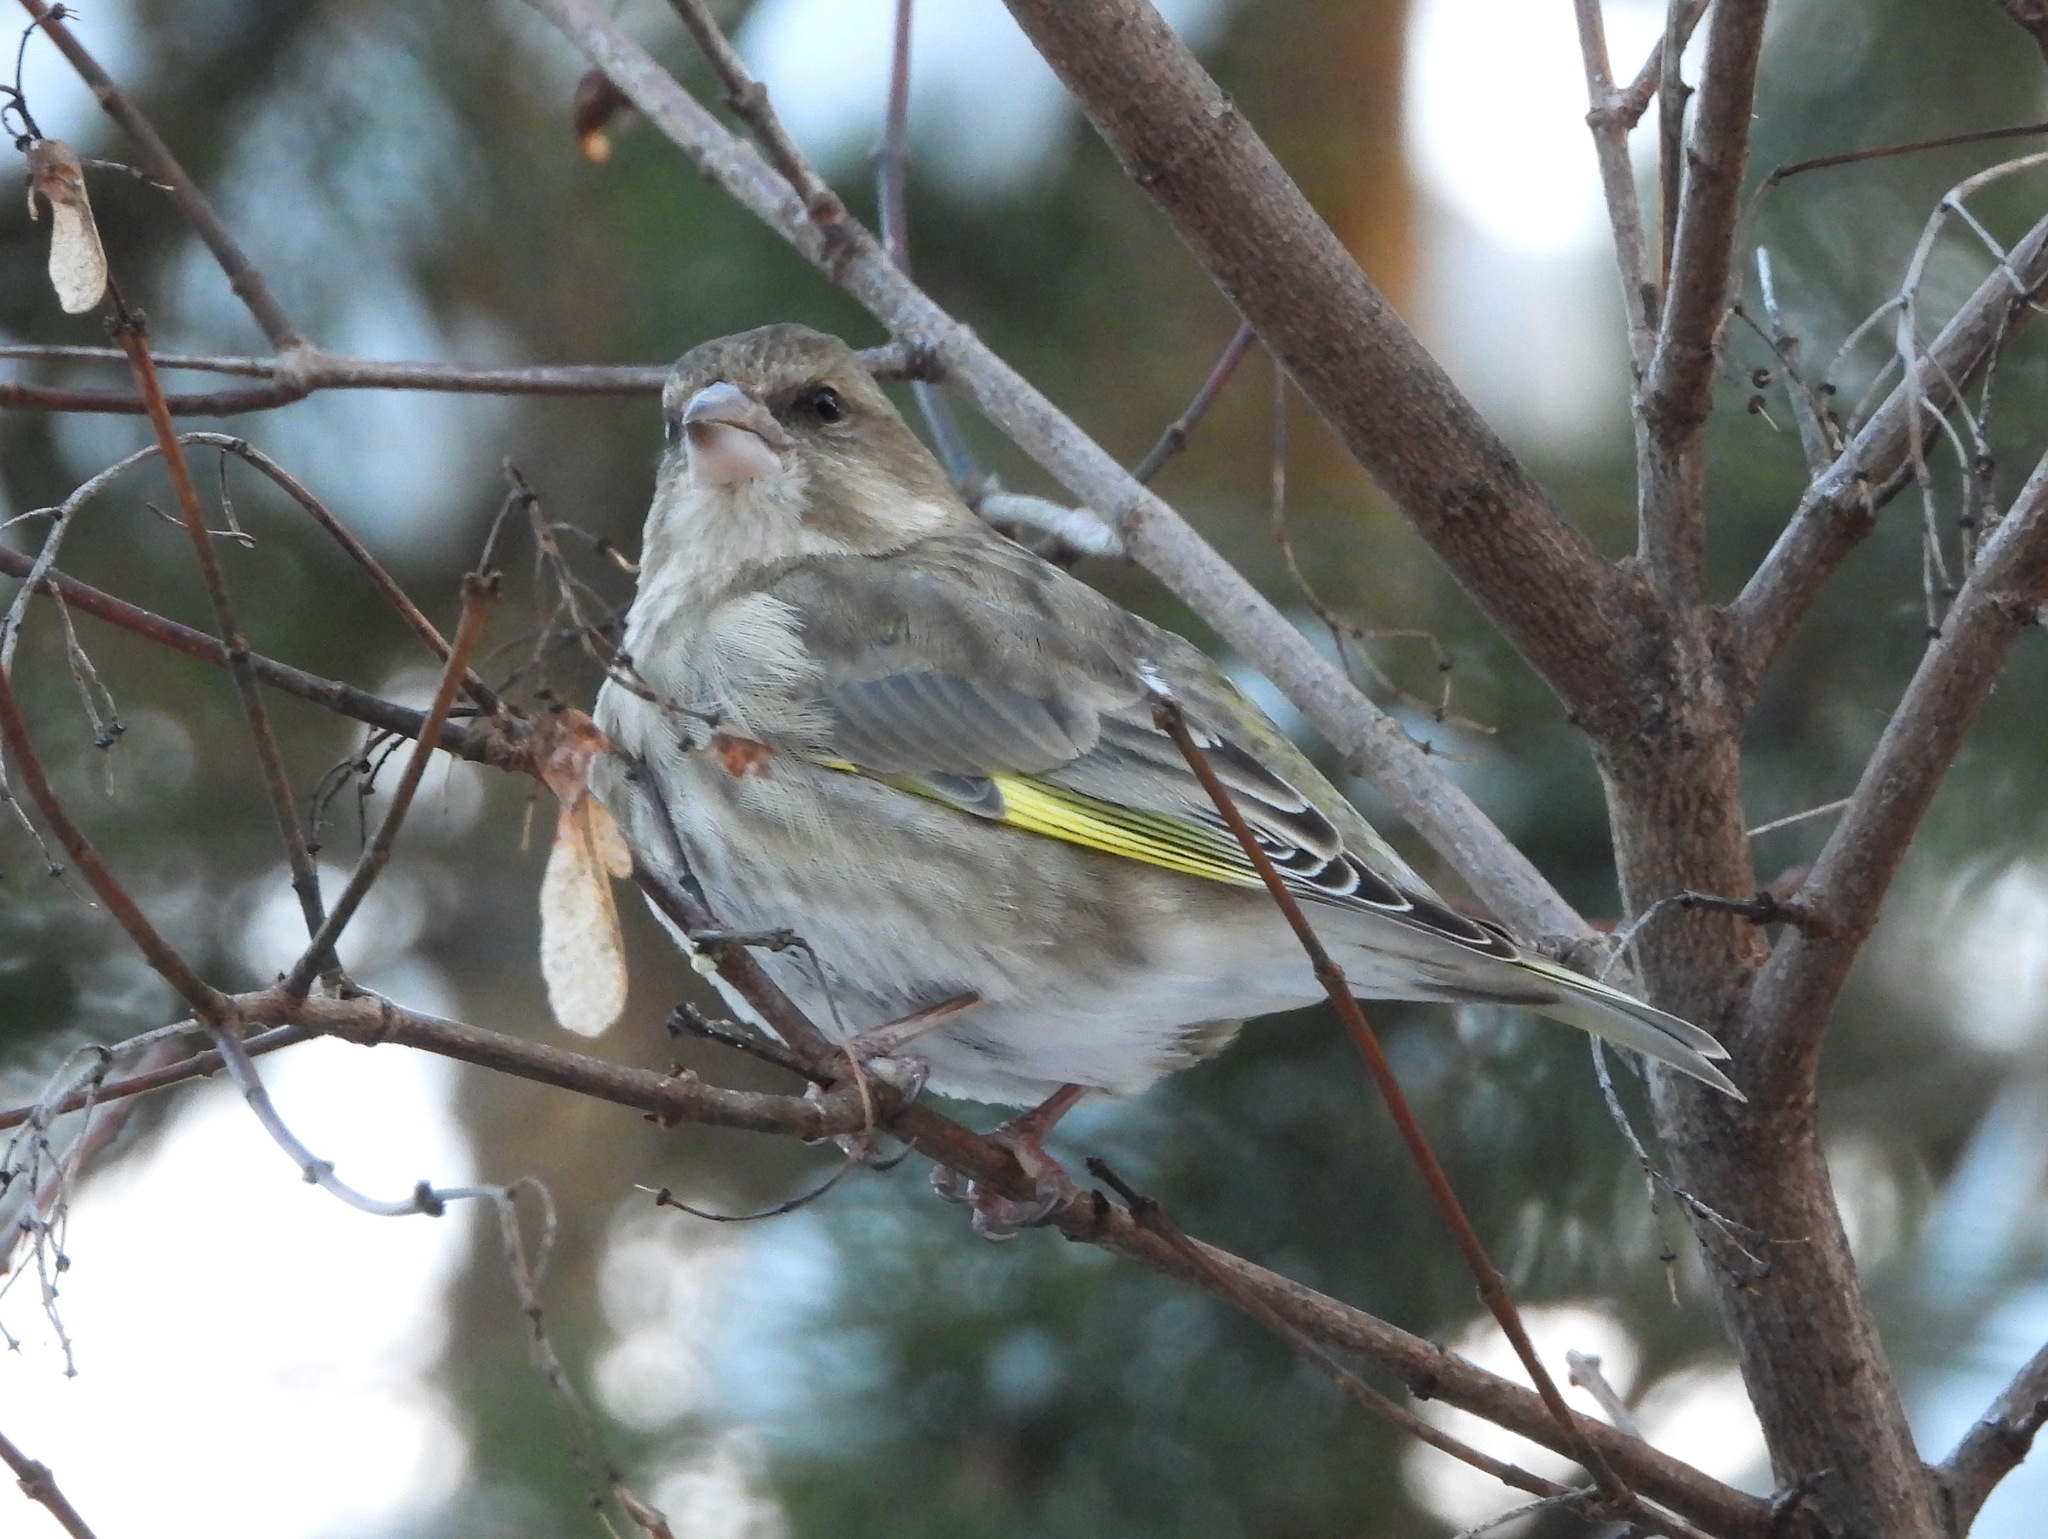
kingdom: Plantae
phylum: Tracheophyta
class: Liliopsida
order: Poales
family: Poaceae
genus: Chloris
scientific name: Chloris chloris
